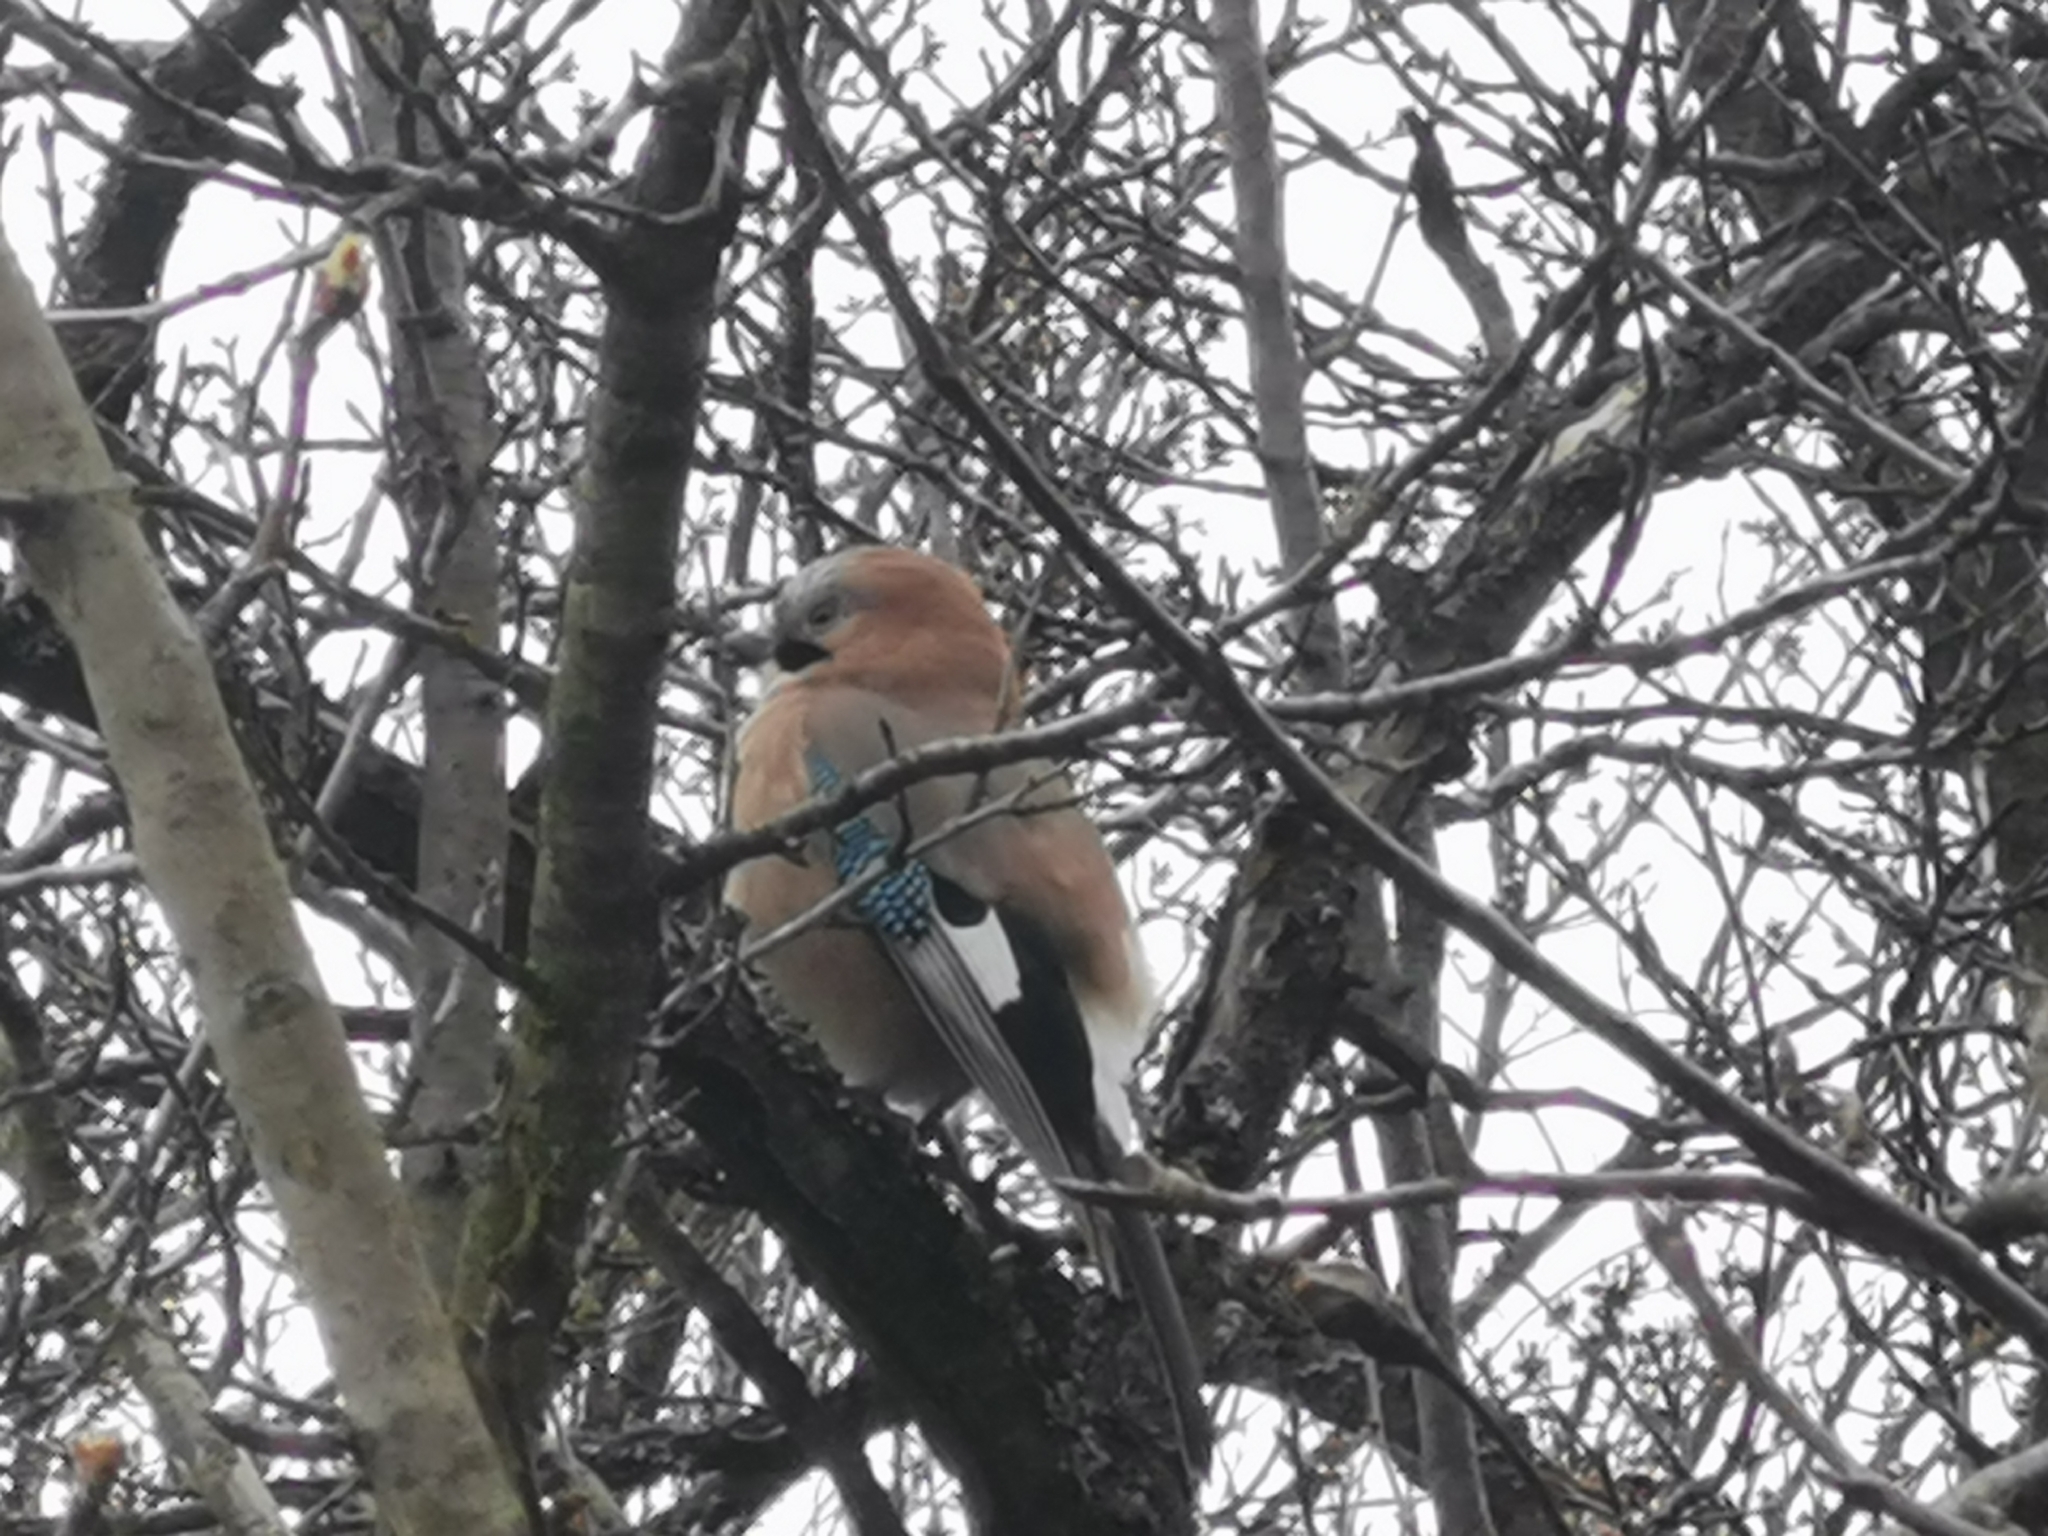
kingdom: Animalia
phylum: Chordata
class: Aves
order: Passeriformes
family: Corvidae
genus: Garrulus
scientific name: Garrulus glandarius
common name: Eurasian jay
